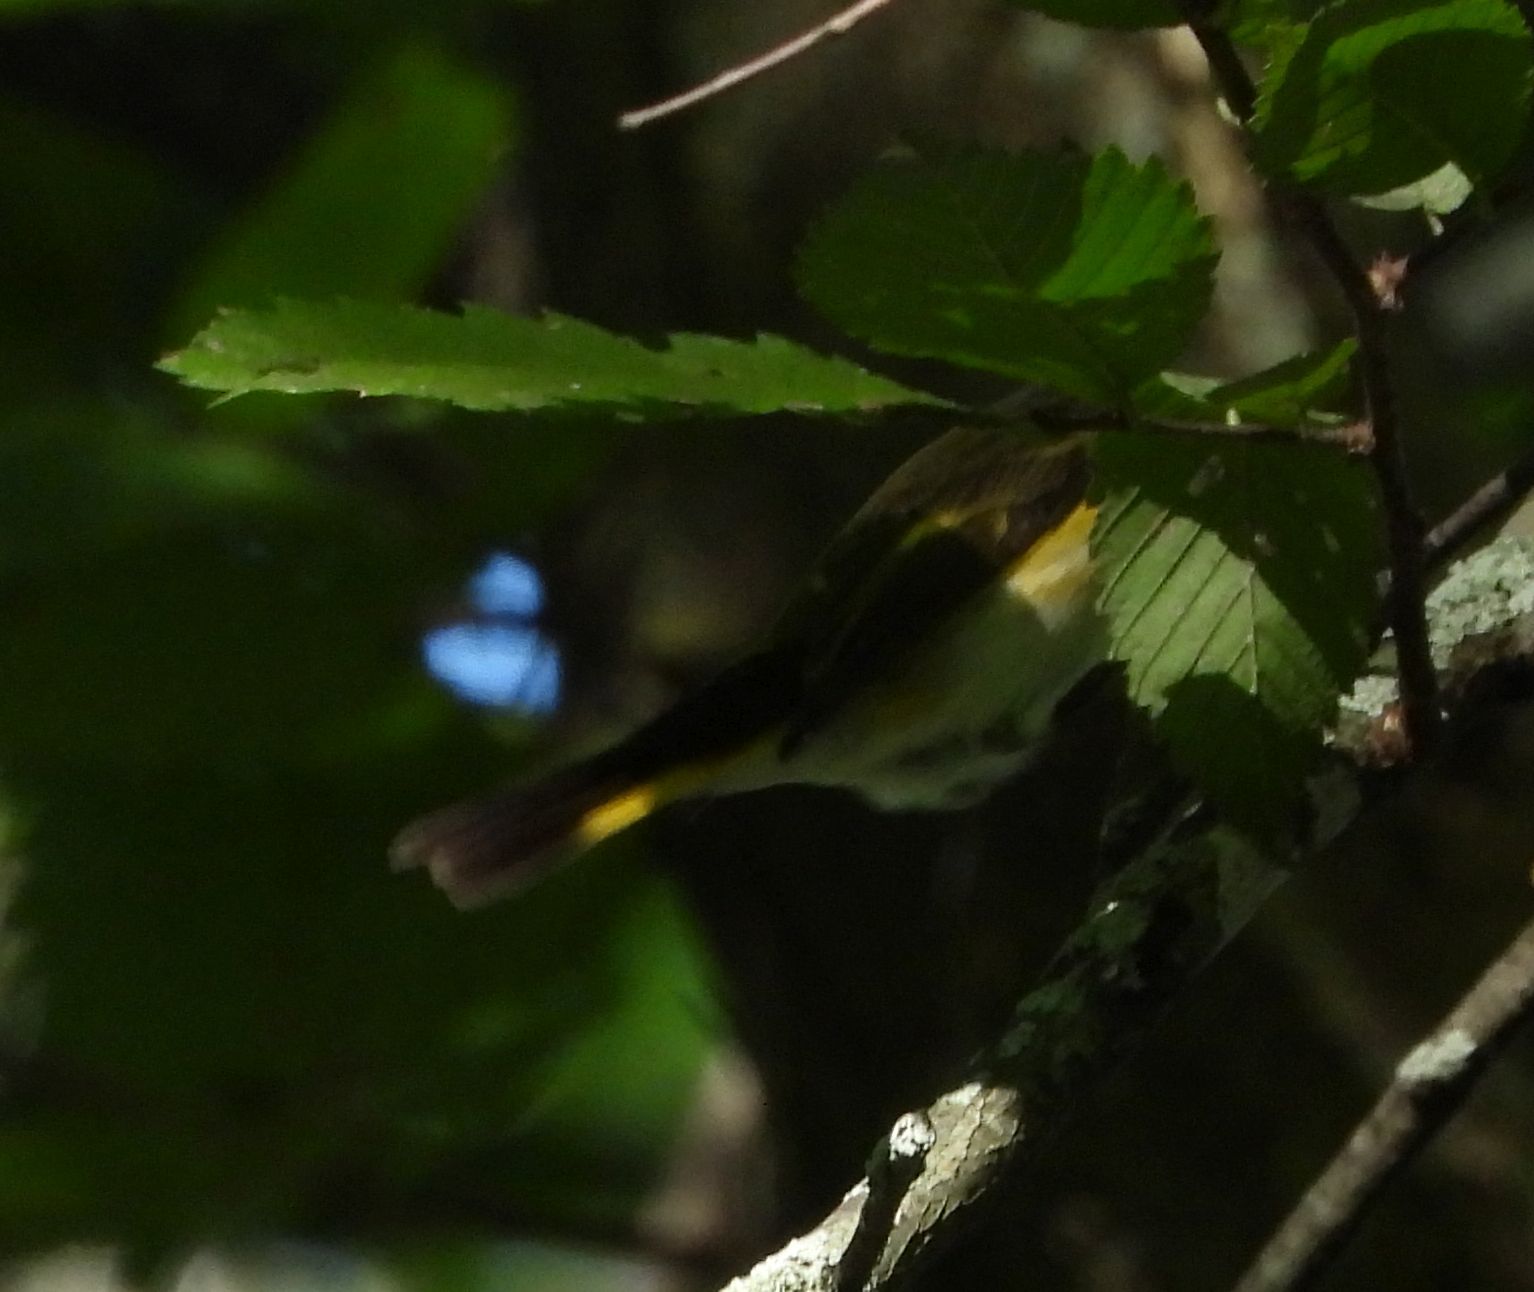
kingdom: Animalia
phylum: Chordata
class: Aves
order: Passeriformes
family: Parulidae
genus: Setophaga
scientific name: Setophaga ruticilla
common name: American redstart
